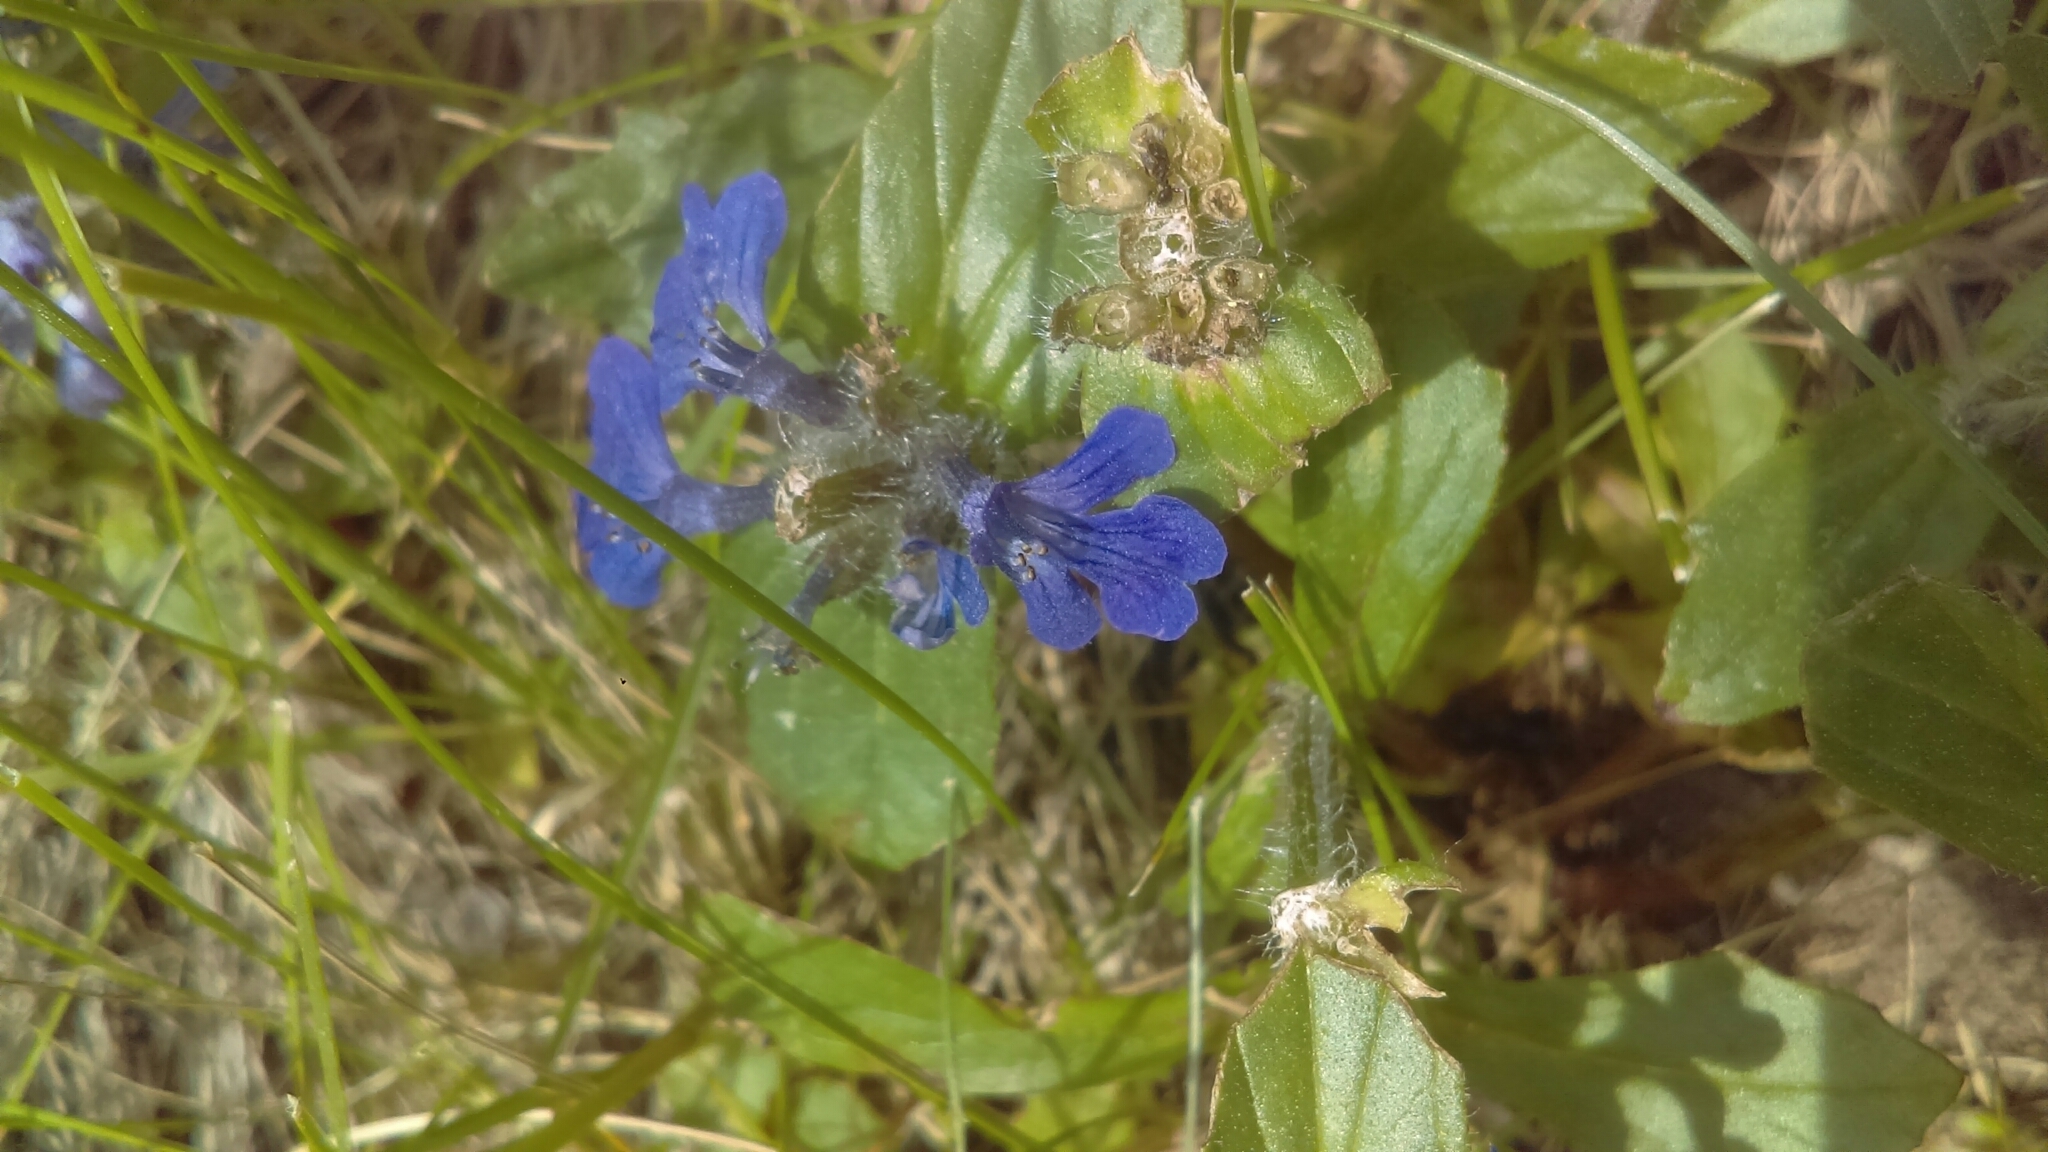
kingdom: Plantae
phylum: Tracheophyta
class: Magnoliopsida
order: Lamiales
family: Lamiaceae
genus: Ajuga
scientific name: Ajuga reptans
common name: Bugle
